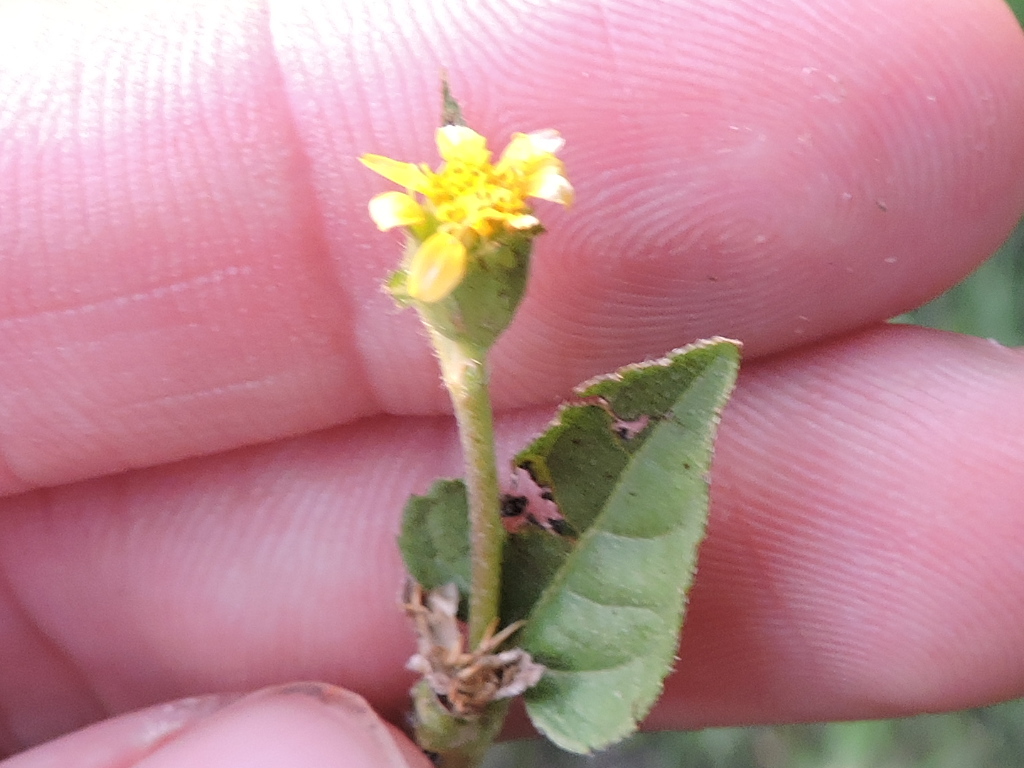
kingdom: Plantae
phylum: Tracheophyta
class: Magnoliopsida
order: Asterales
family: Asteraceae
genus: Calyptocarpus
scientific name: Calyptocarpus vialis
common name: Straggler daisy
